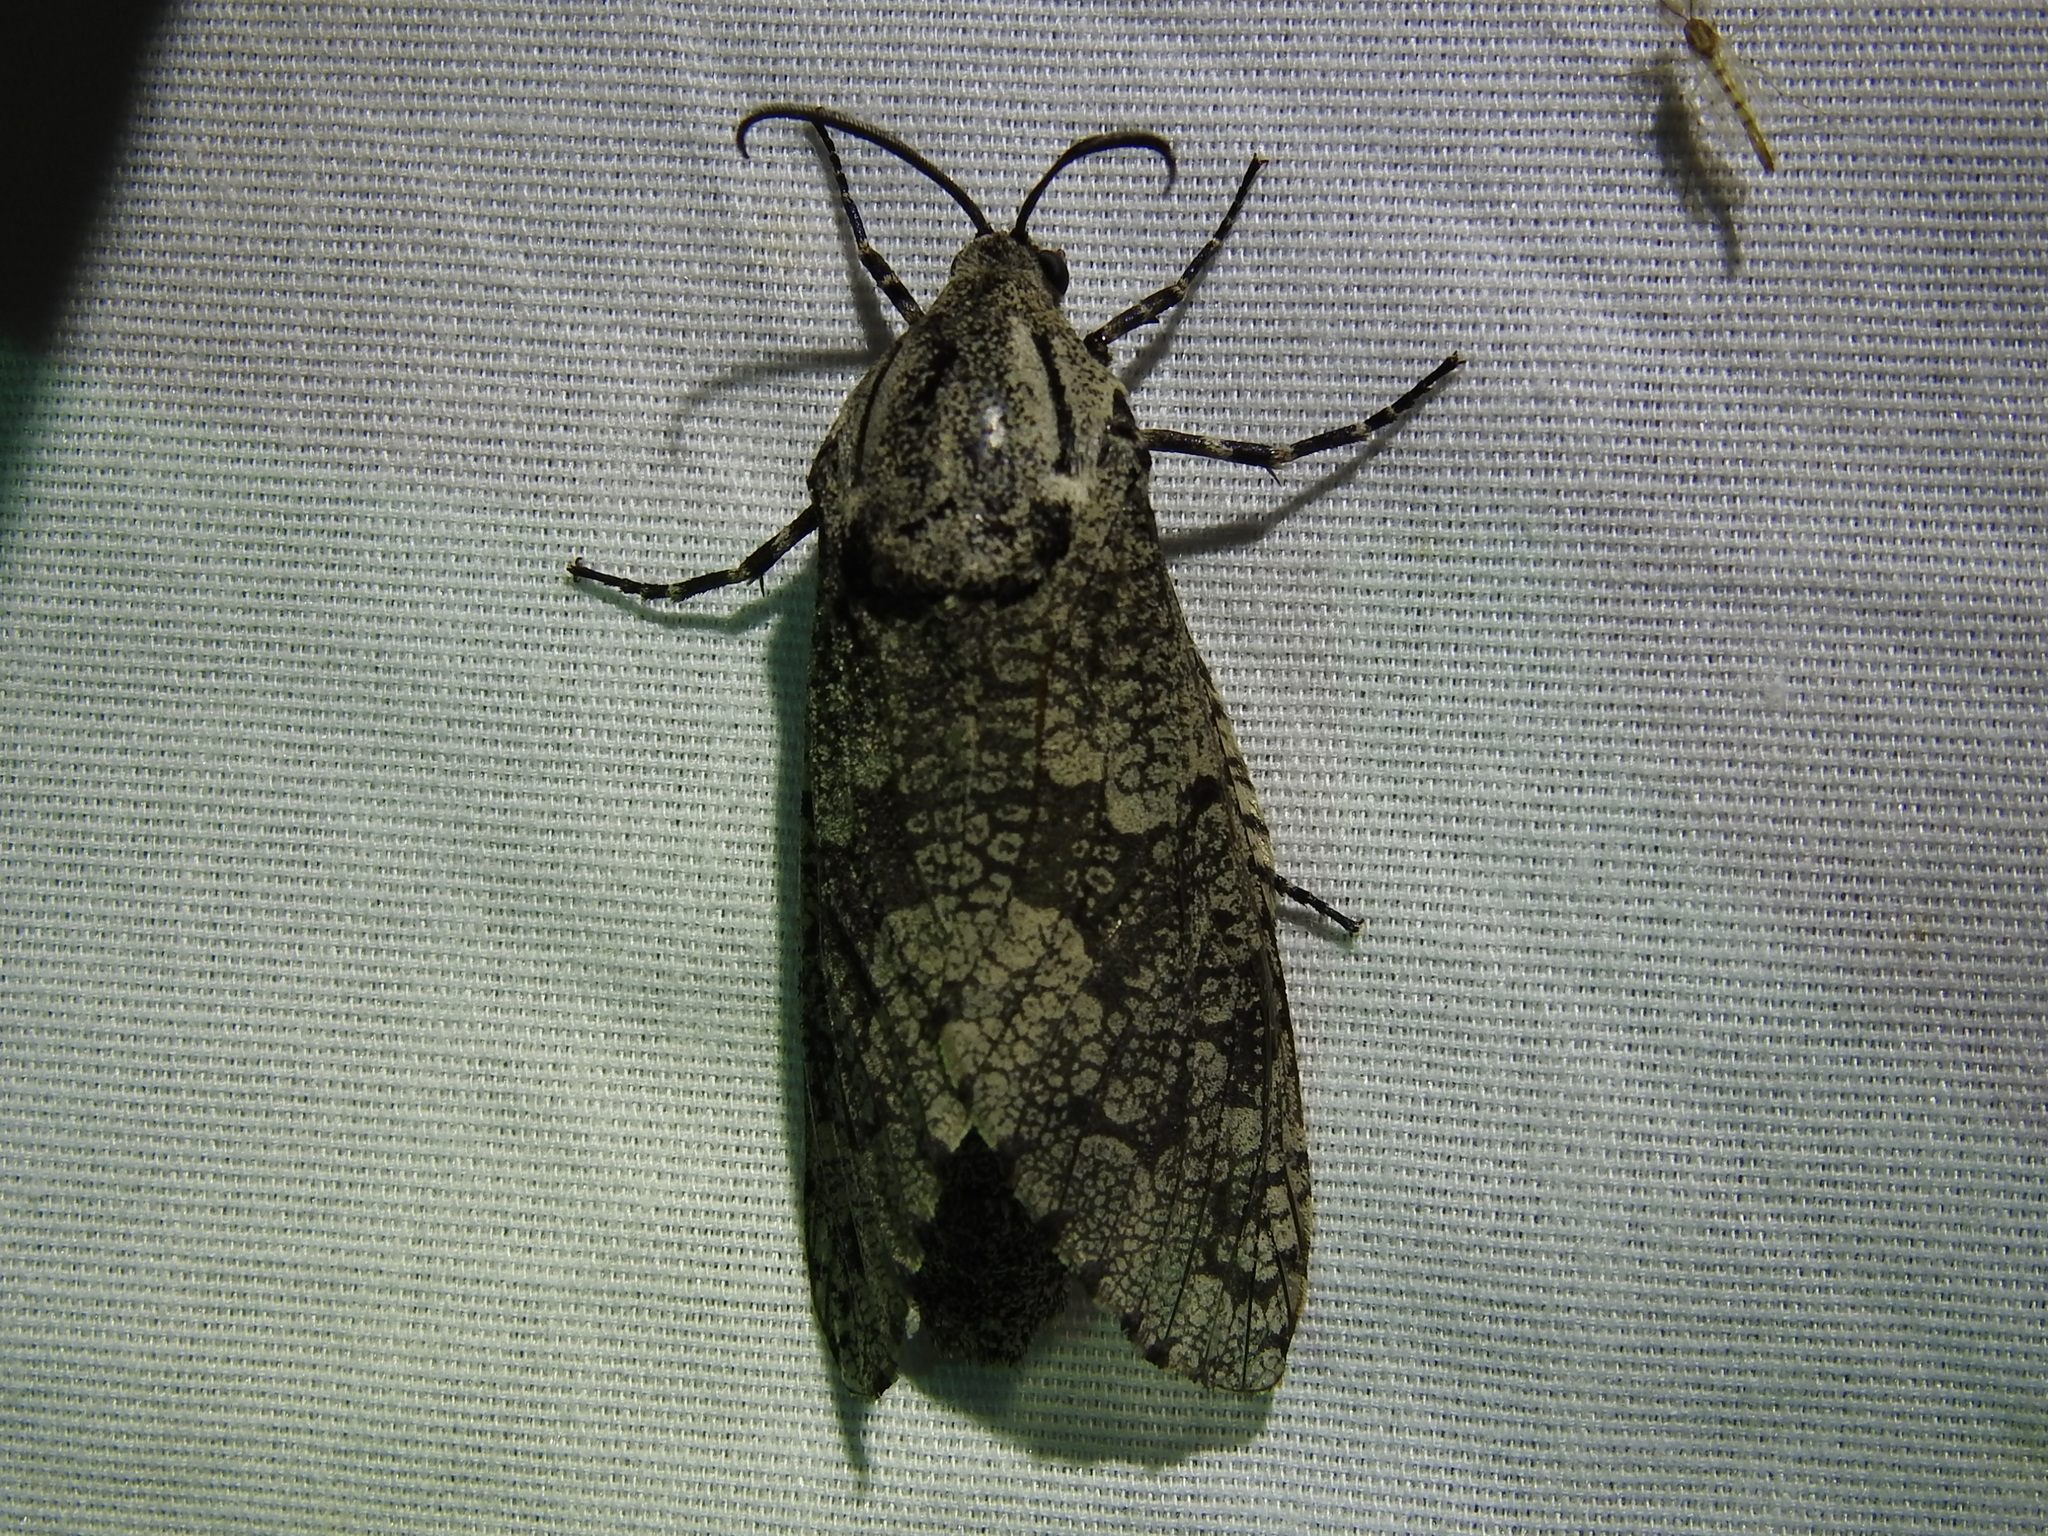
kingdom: Animalia
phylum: Arthropoda
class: Insecta
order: Lepidoptera
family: Cossidae
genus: Prionoxystus
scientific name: Prionoxystus robiniae
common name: Carpenterworm
